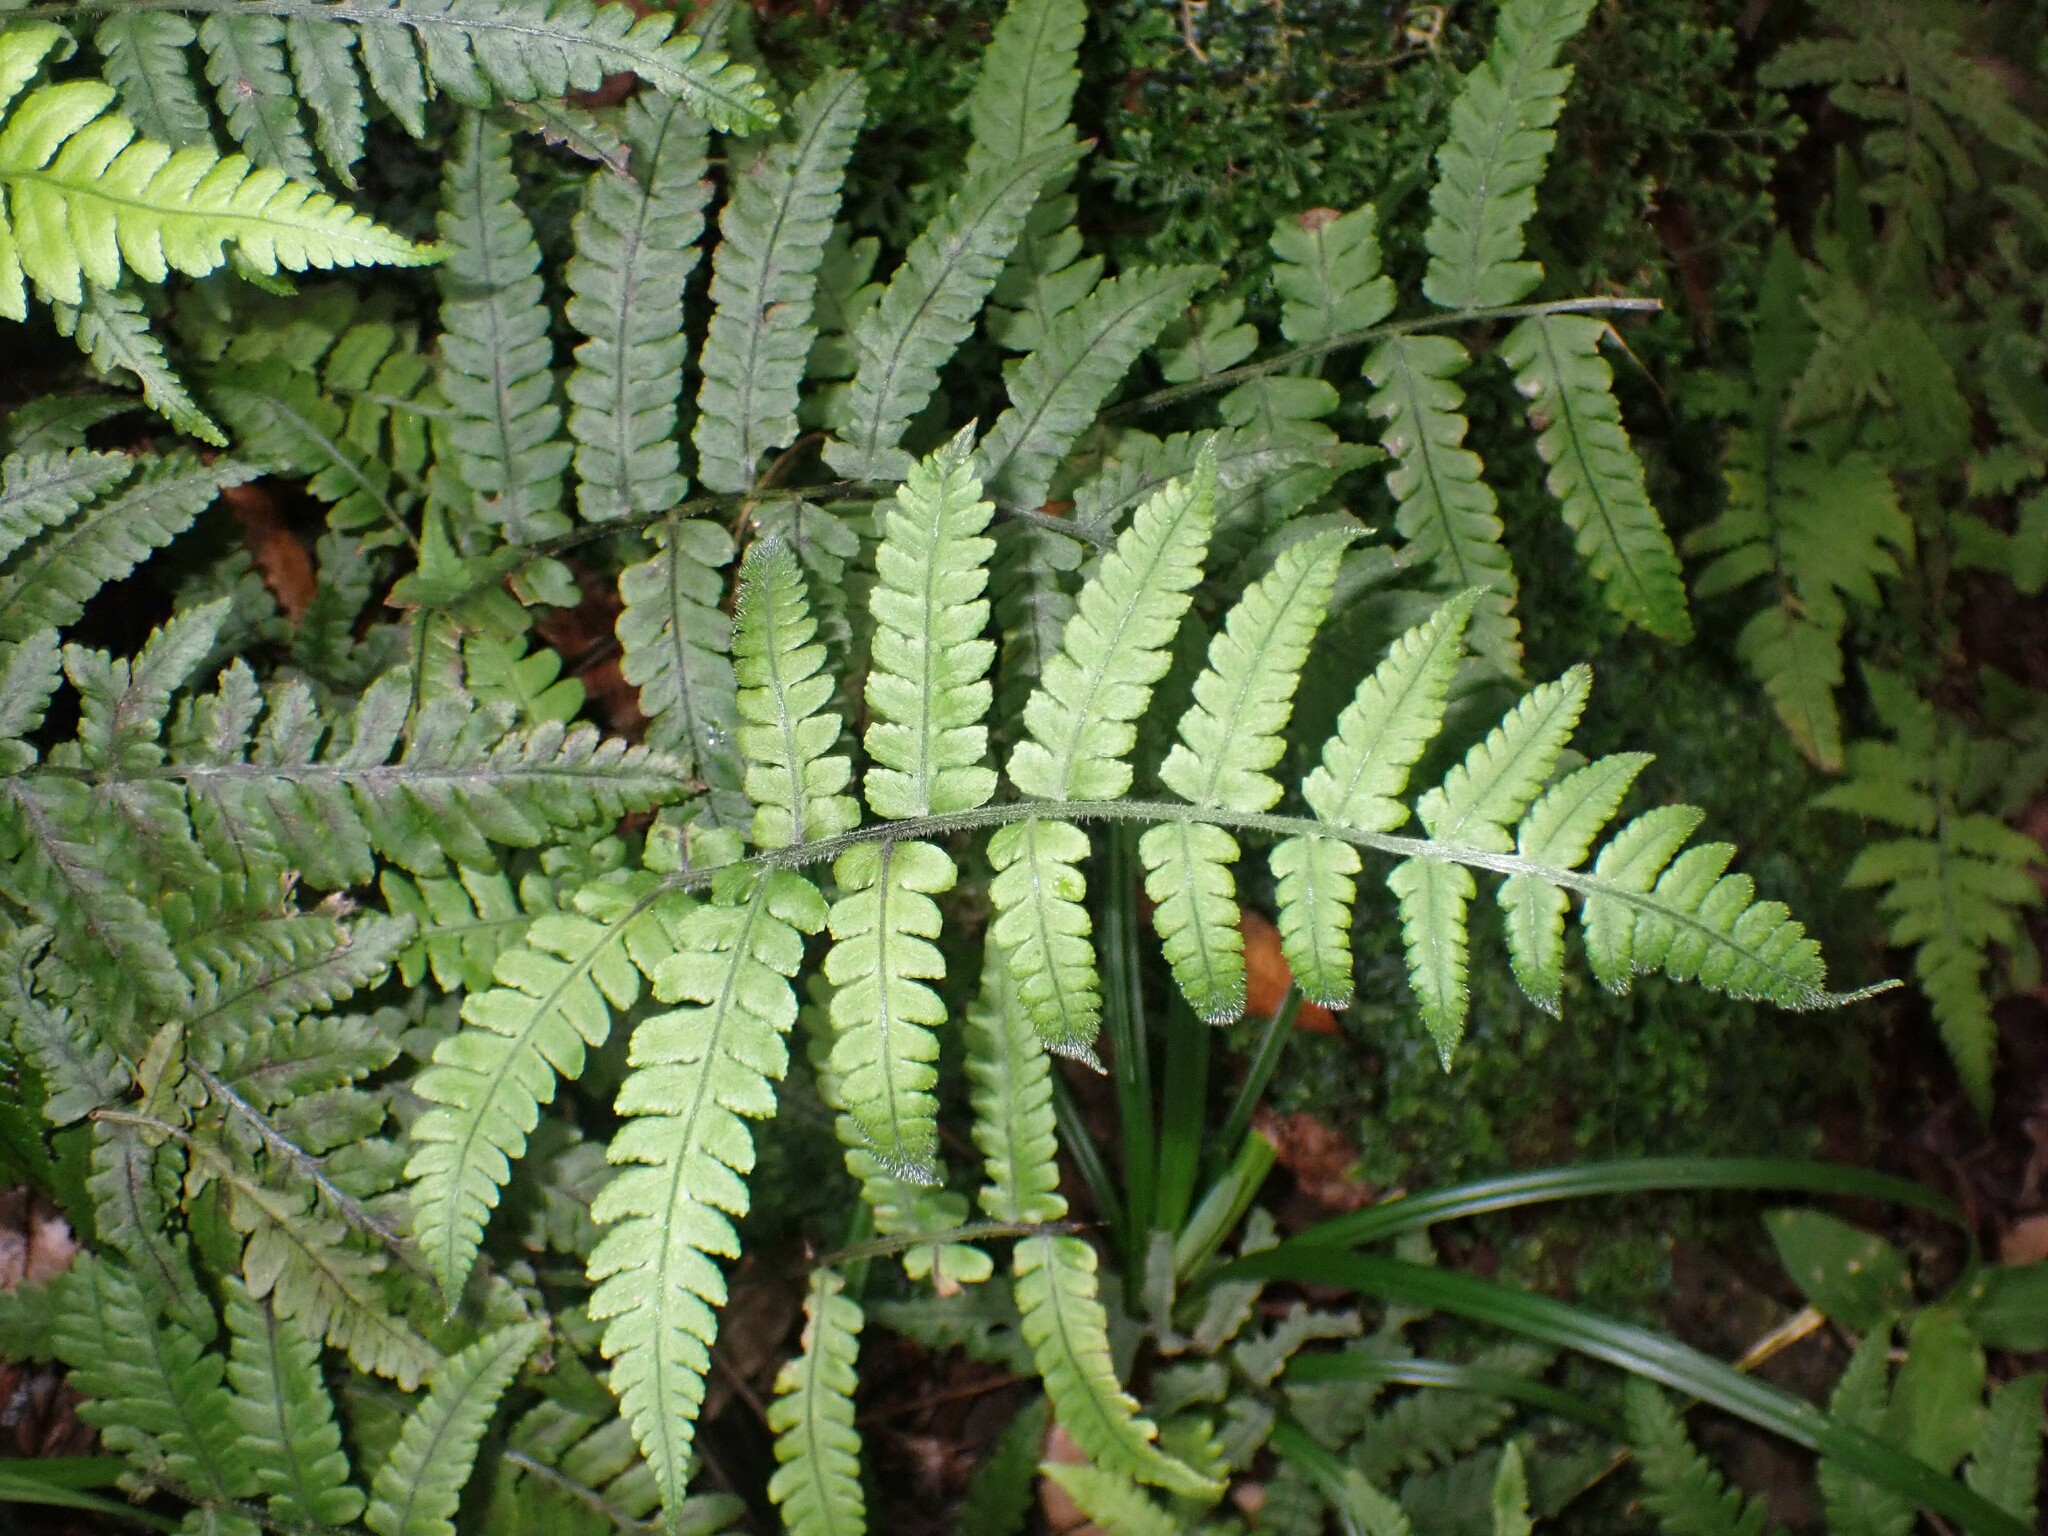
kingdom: Plantae
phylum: Tracheophyta
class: Polypodiopsida
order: Polypodiales
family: Athyriaceae
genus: Deparia
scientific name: Deparia petersenii
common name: Japanese false spleenwort
